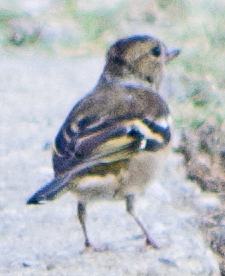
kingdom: Animalia
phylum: Chordata
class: Aves
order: Passeriformes
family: Fringillidae
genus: Fringilla
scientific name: Fringilla coelebs
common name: Common chaffinch
